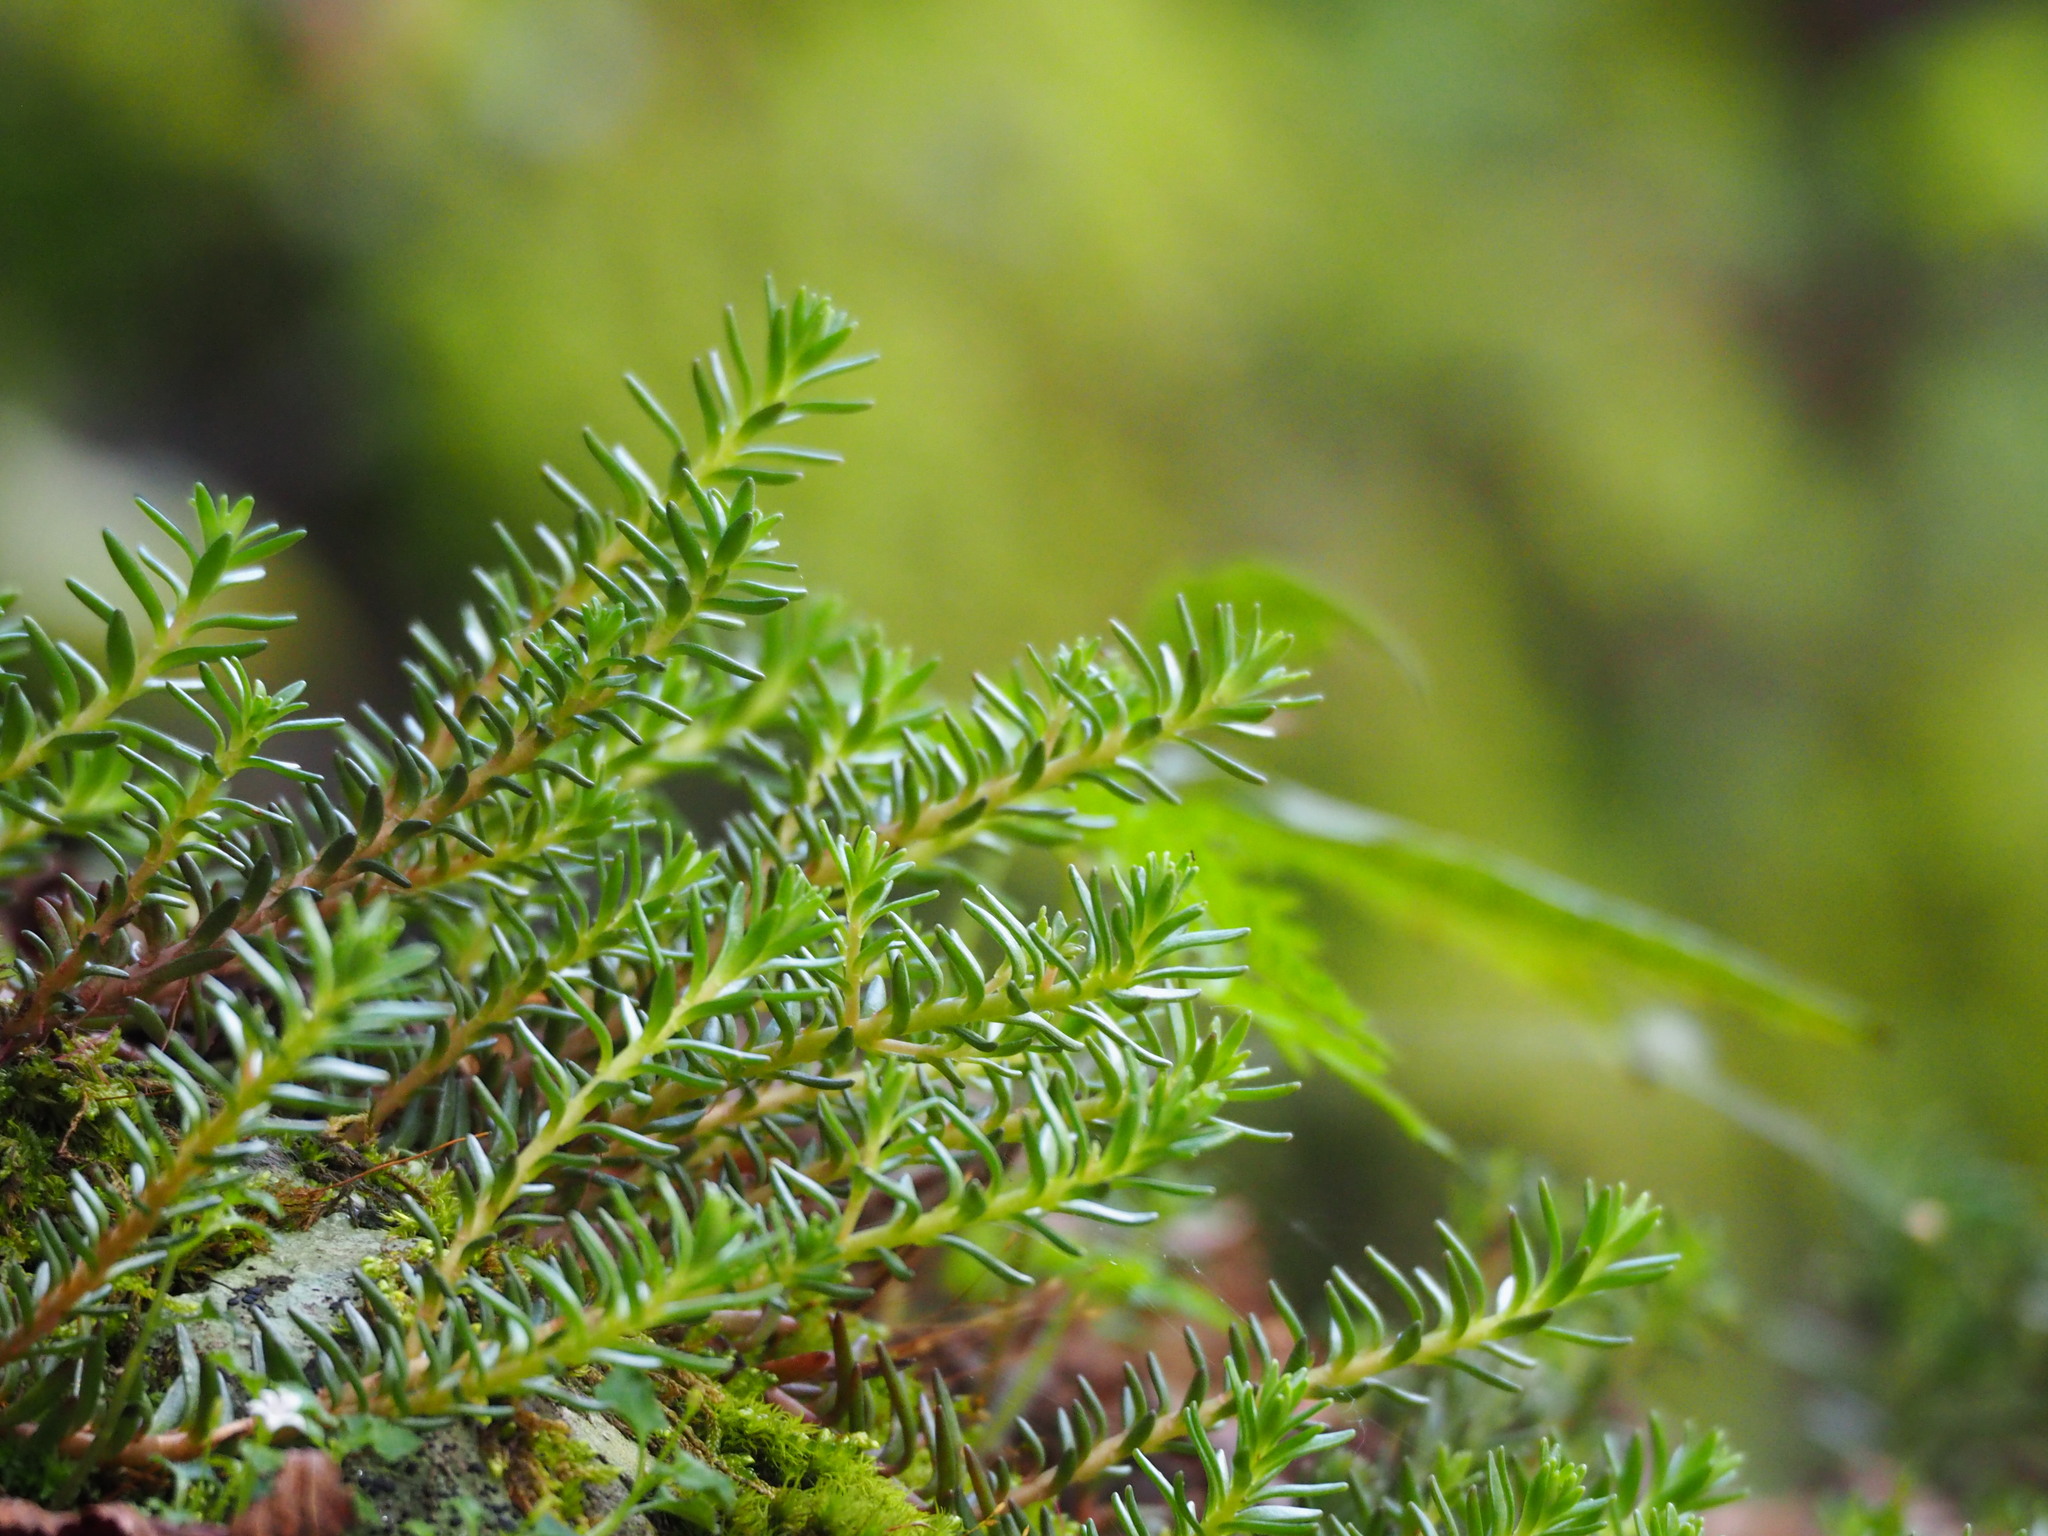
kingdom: Plantae
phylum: Tracheophyta
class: Magnoliopsida
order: Saxifragales
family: Crassulaceae
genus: Sedum
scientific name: Sedum morrisonense
